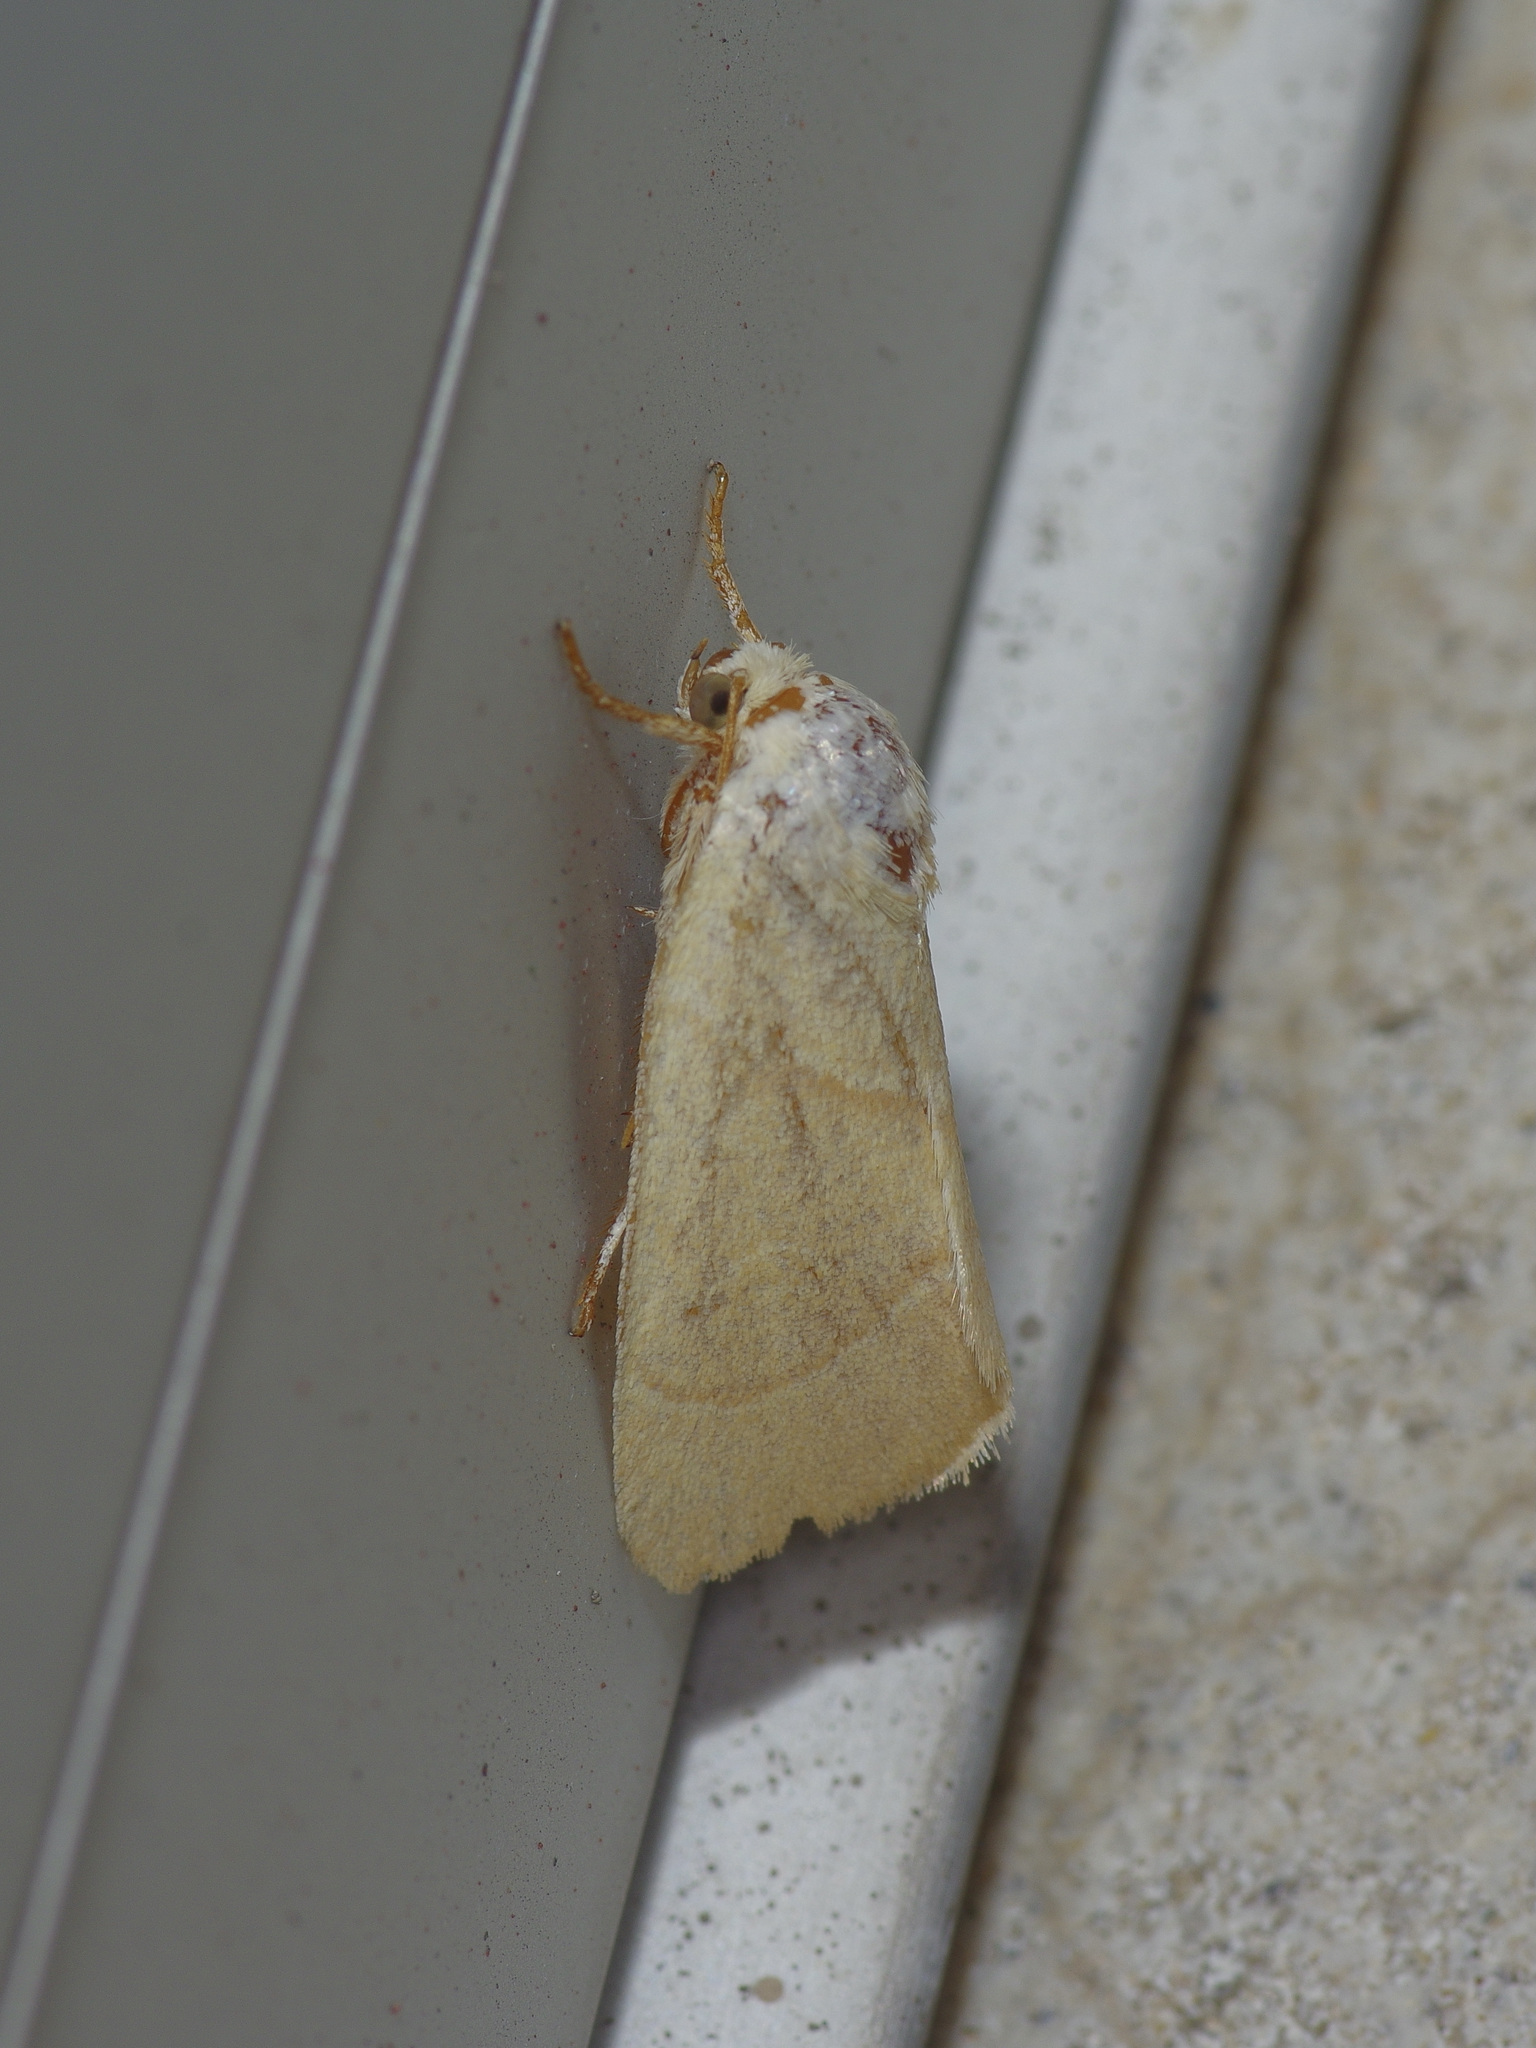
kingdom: Animalia
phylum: Arthropoda
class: Insecta
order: Lepidoptera
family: Noctuidae
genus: Cosmia
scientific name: Cosmia calami
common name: American dun-bar moth
